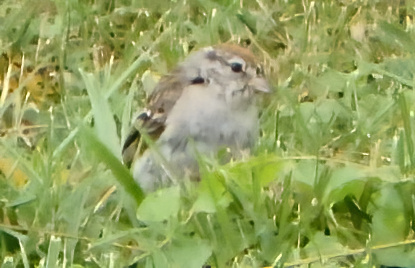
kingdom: Animalia
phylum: Chordata
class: Aves
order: Passeriformes
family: Passerellidae
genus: Spizella
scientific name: Spizella passerina
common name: Chipping sparrow
